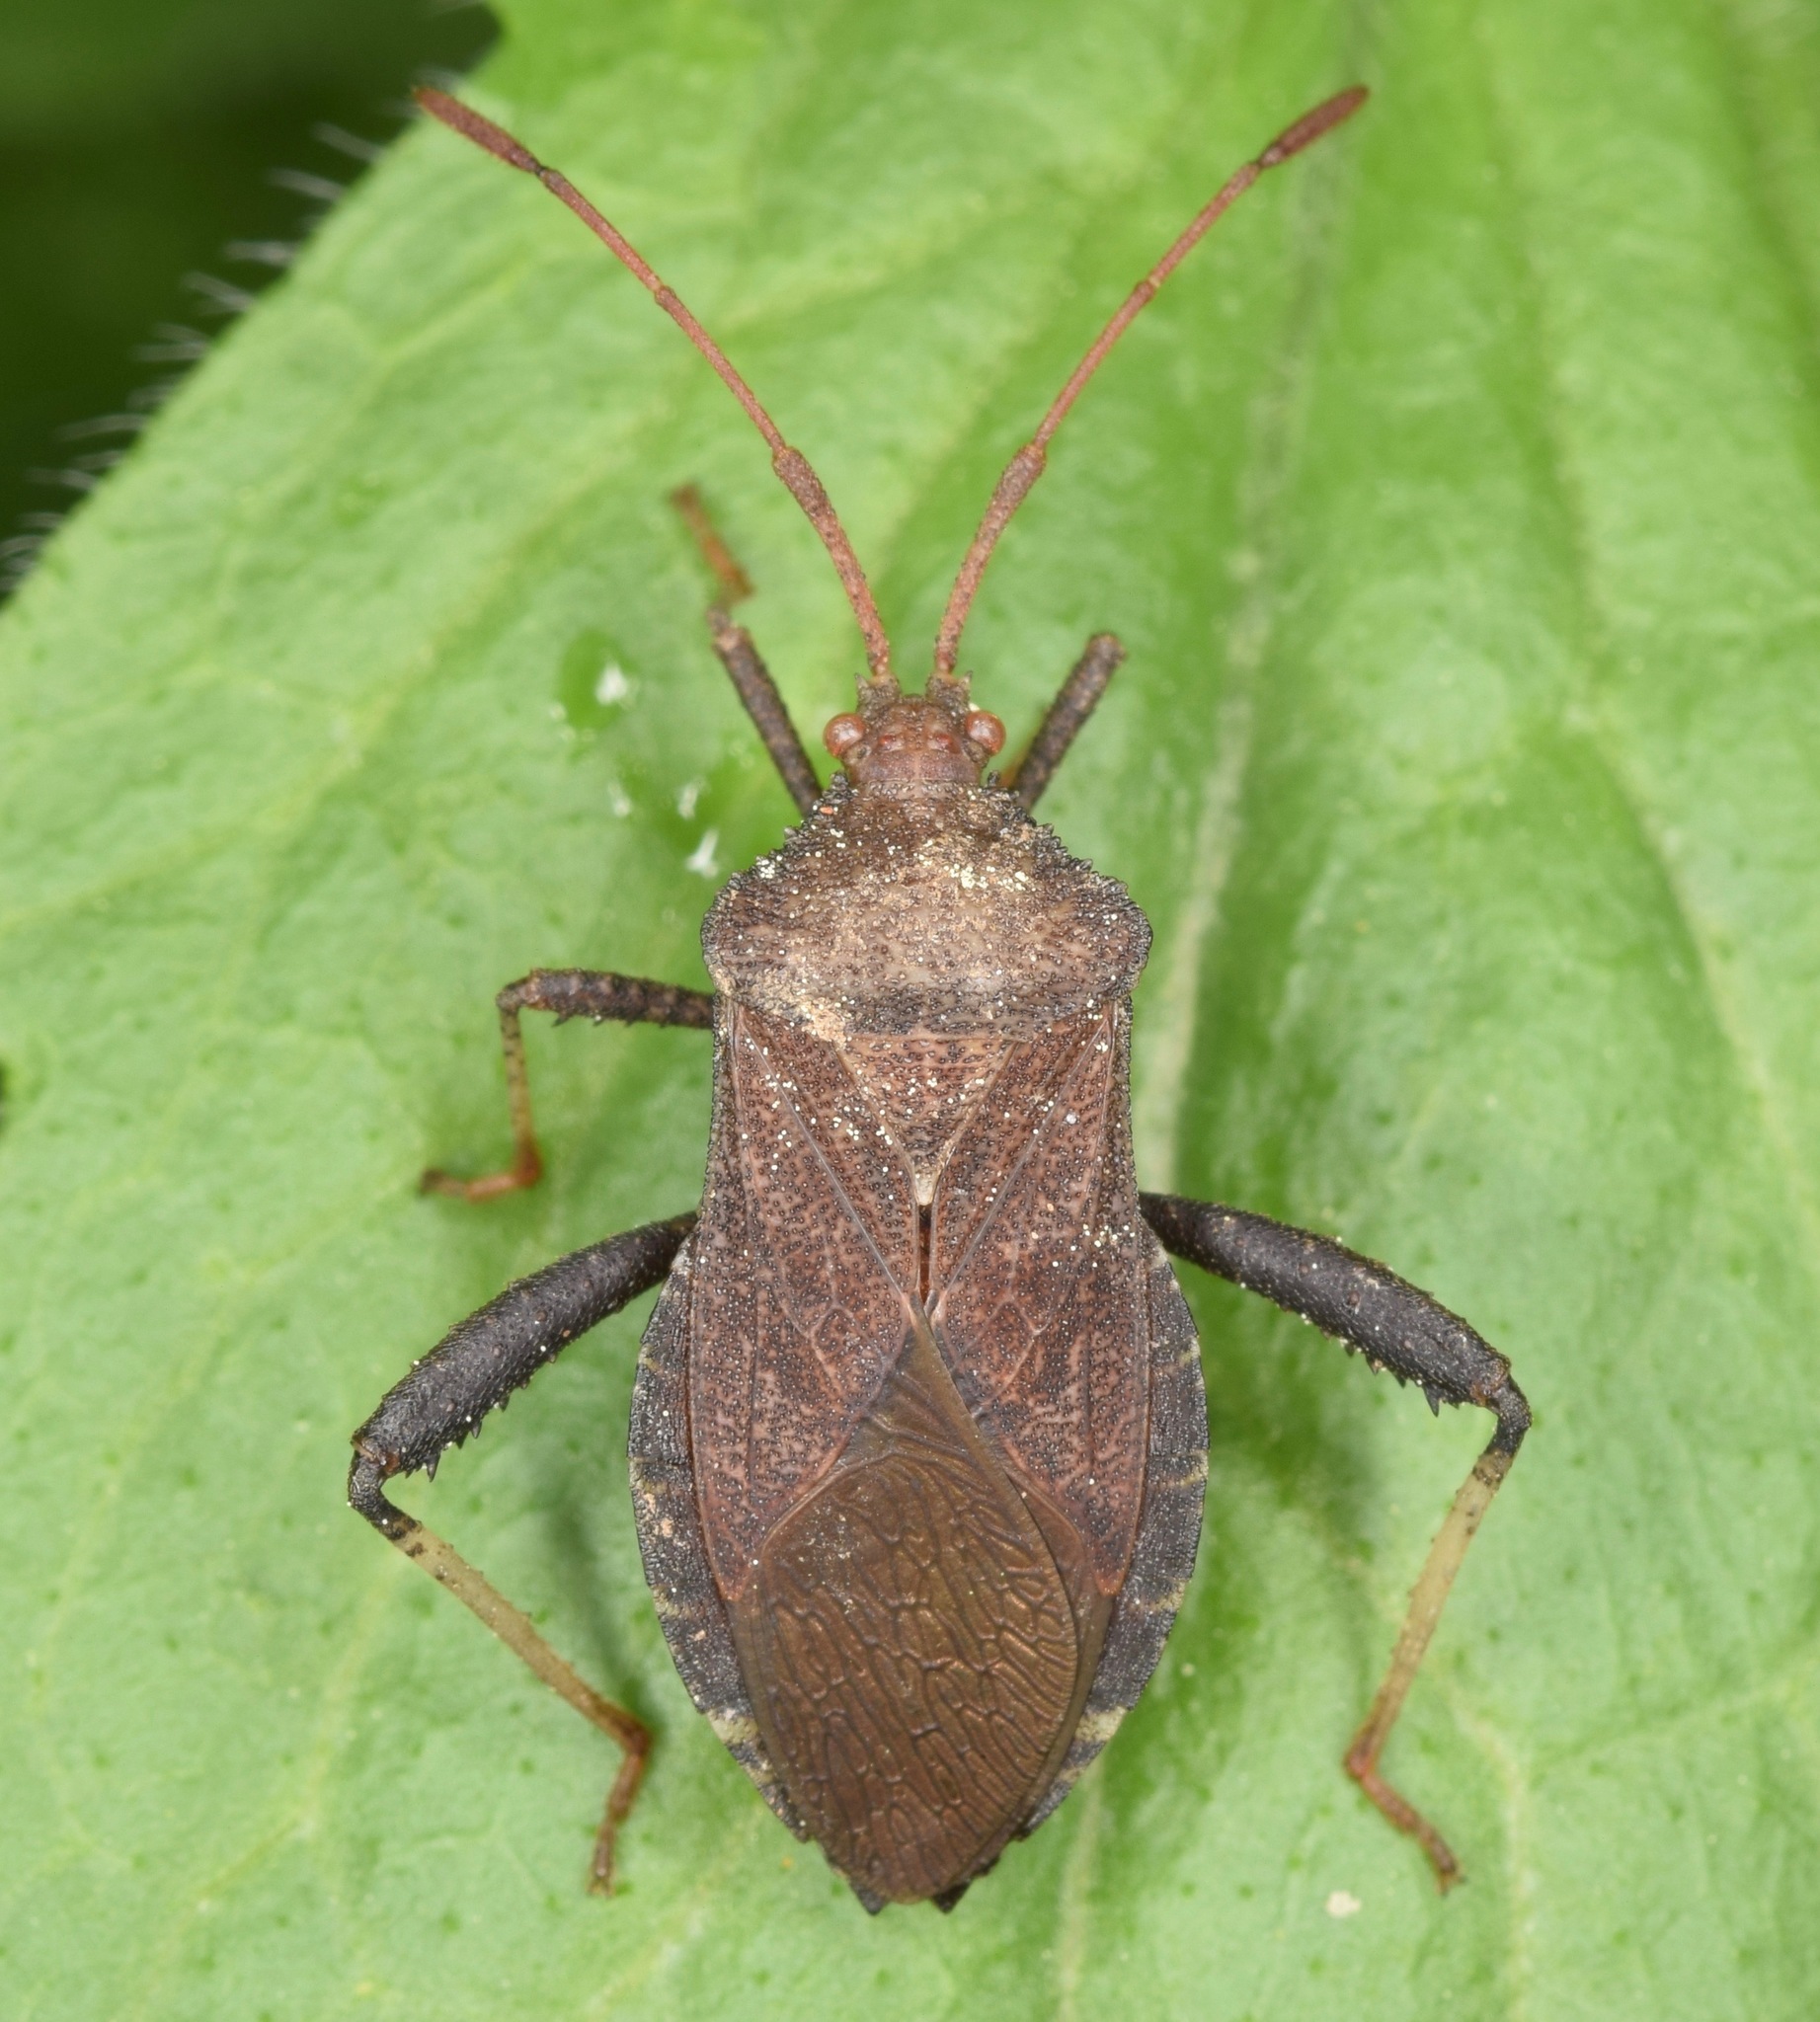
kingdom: Animalia
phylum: Arthropoda
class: Insecta
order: Hemiptera
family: Coreidae
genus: Euthochtha
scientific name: Euthochtha galeator
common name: Helmeted squash bug
